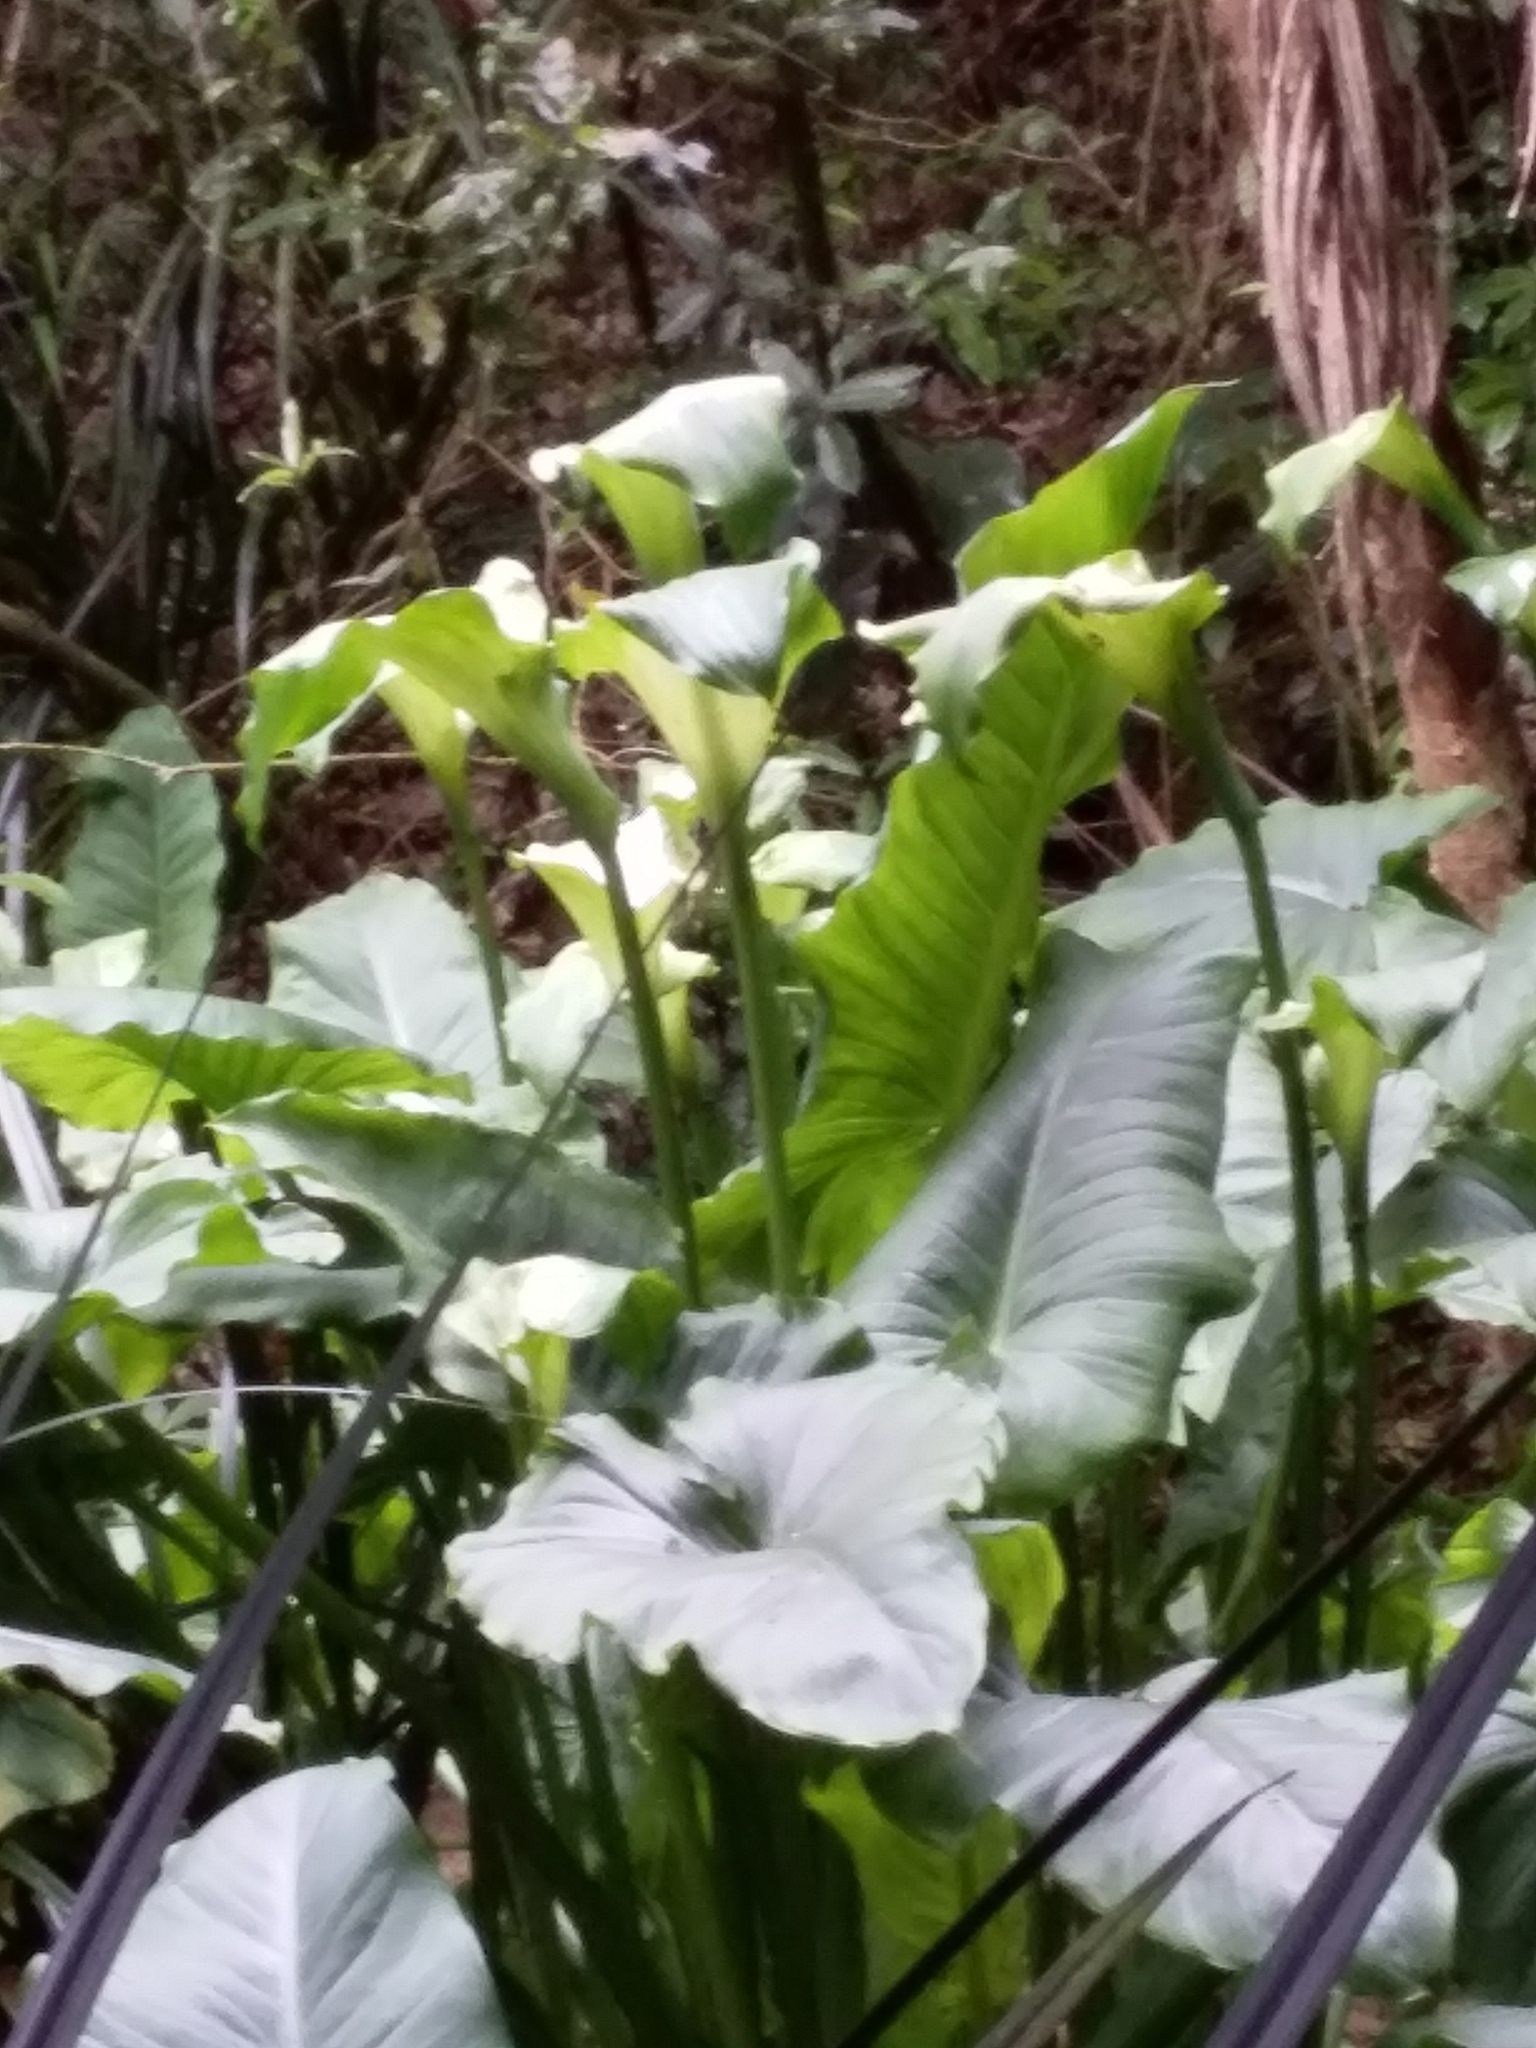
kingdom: Plantae
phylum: Tracheophyta
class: Liliopsida
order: Alismatales
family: Araceae
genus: Zantedeschia
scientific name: Zantedeschia aethiopica
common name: Altar-lily
